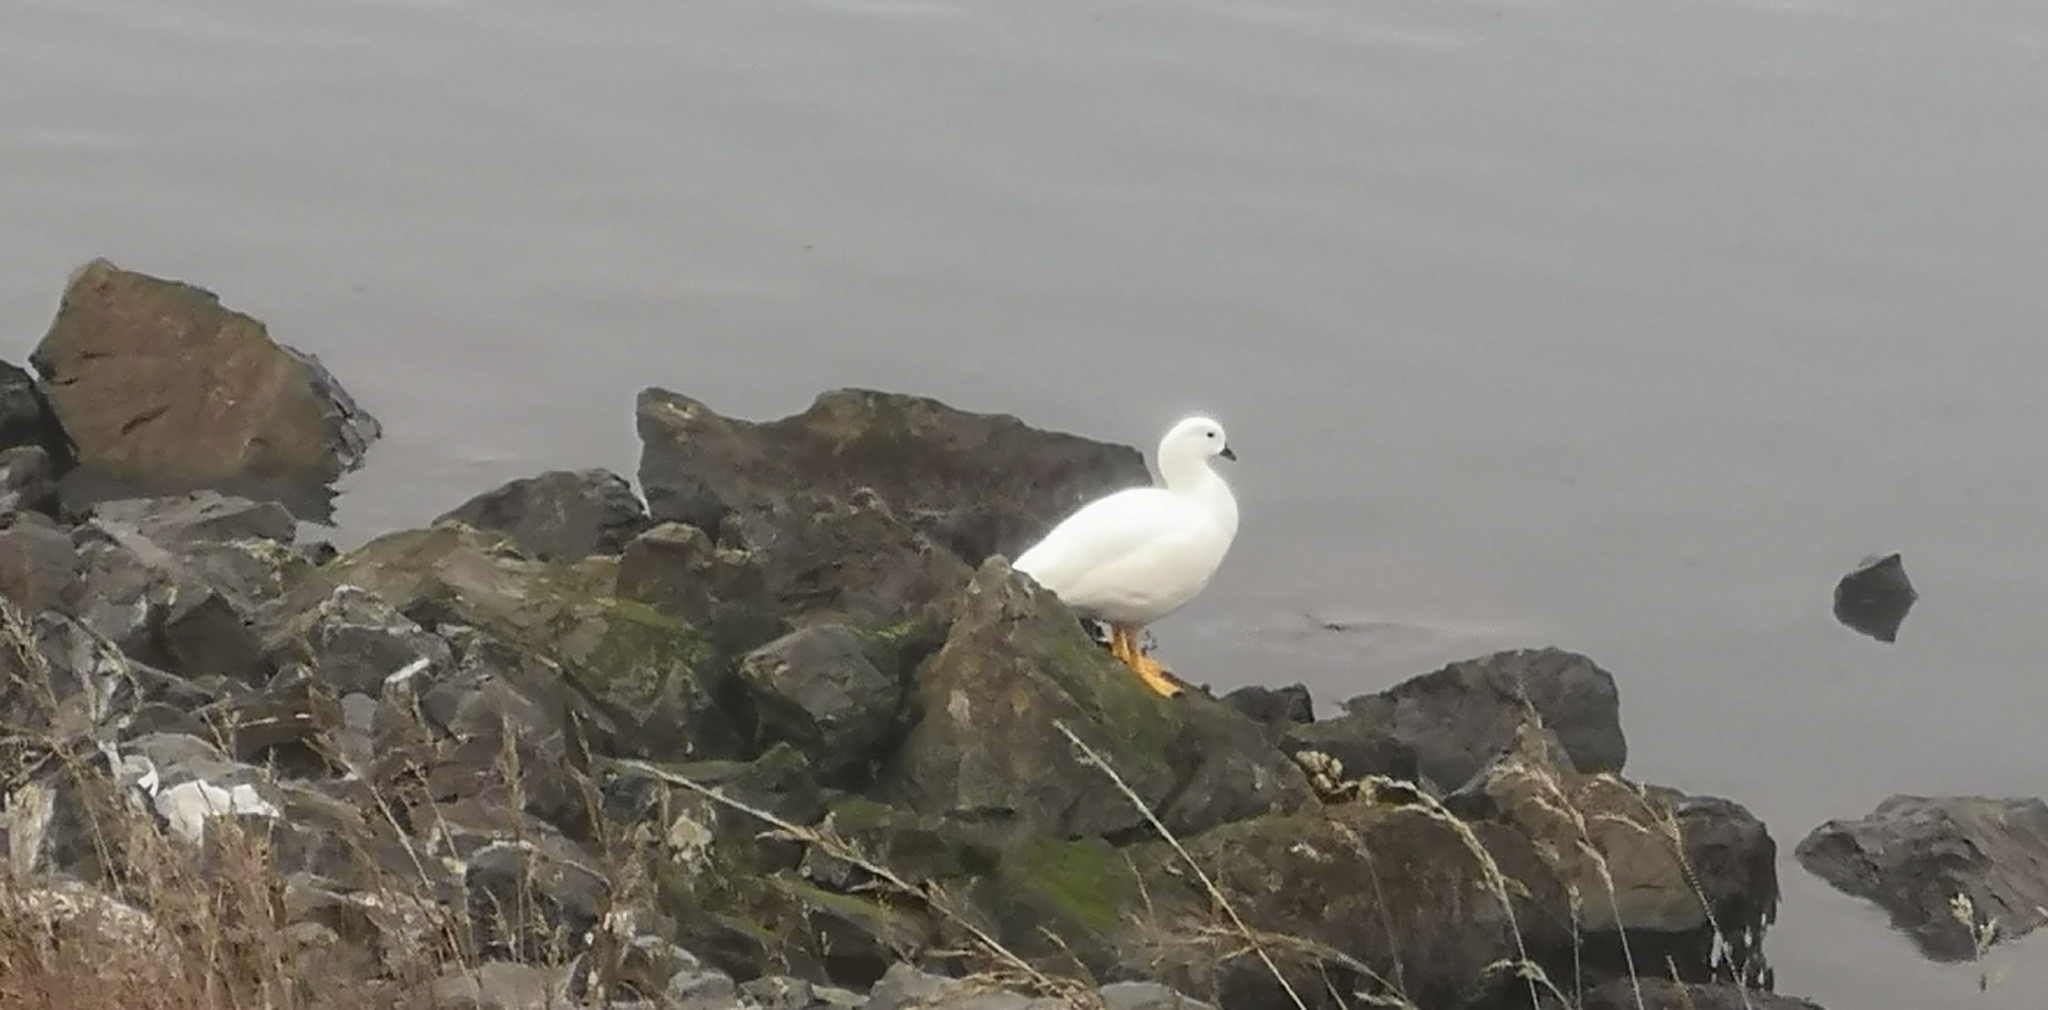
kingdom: Animalia
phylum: Chordata
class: Aves
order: Anseriformes
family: Anatidae
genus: Chloephaga
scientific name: Chloephaga hybrida
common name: Kelp goose
